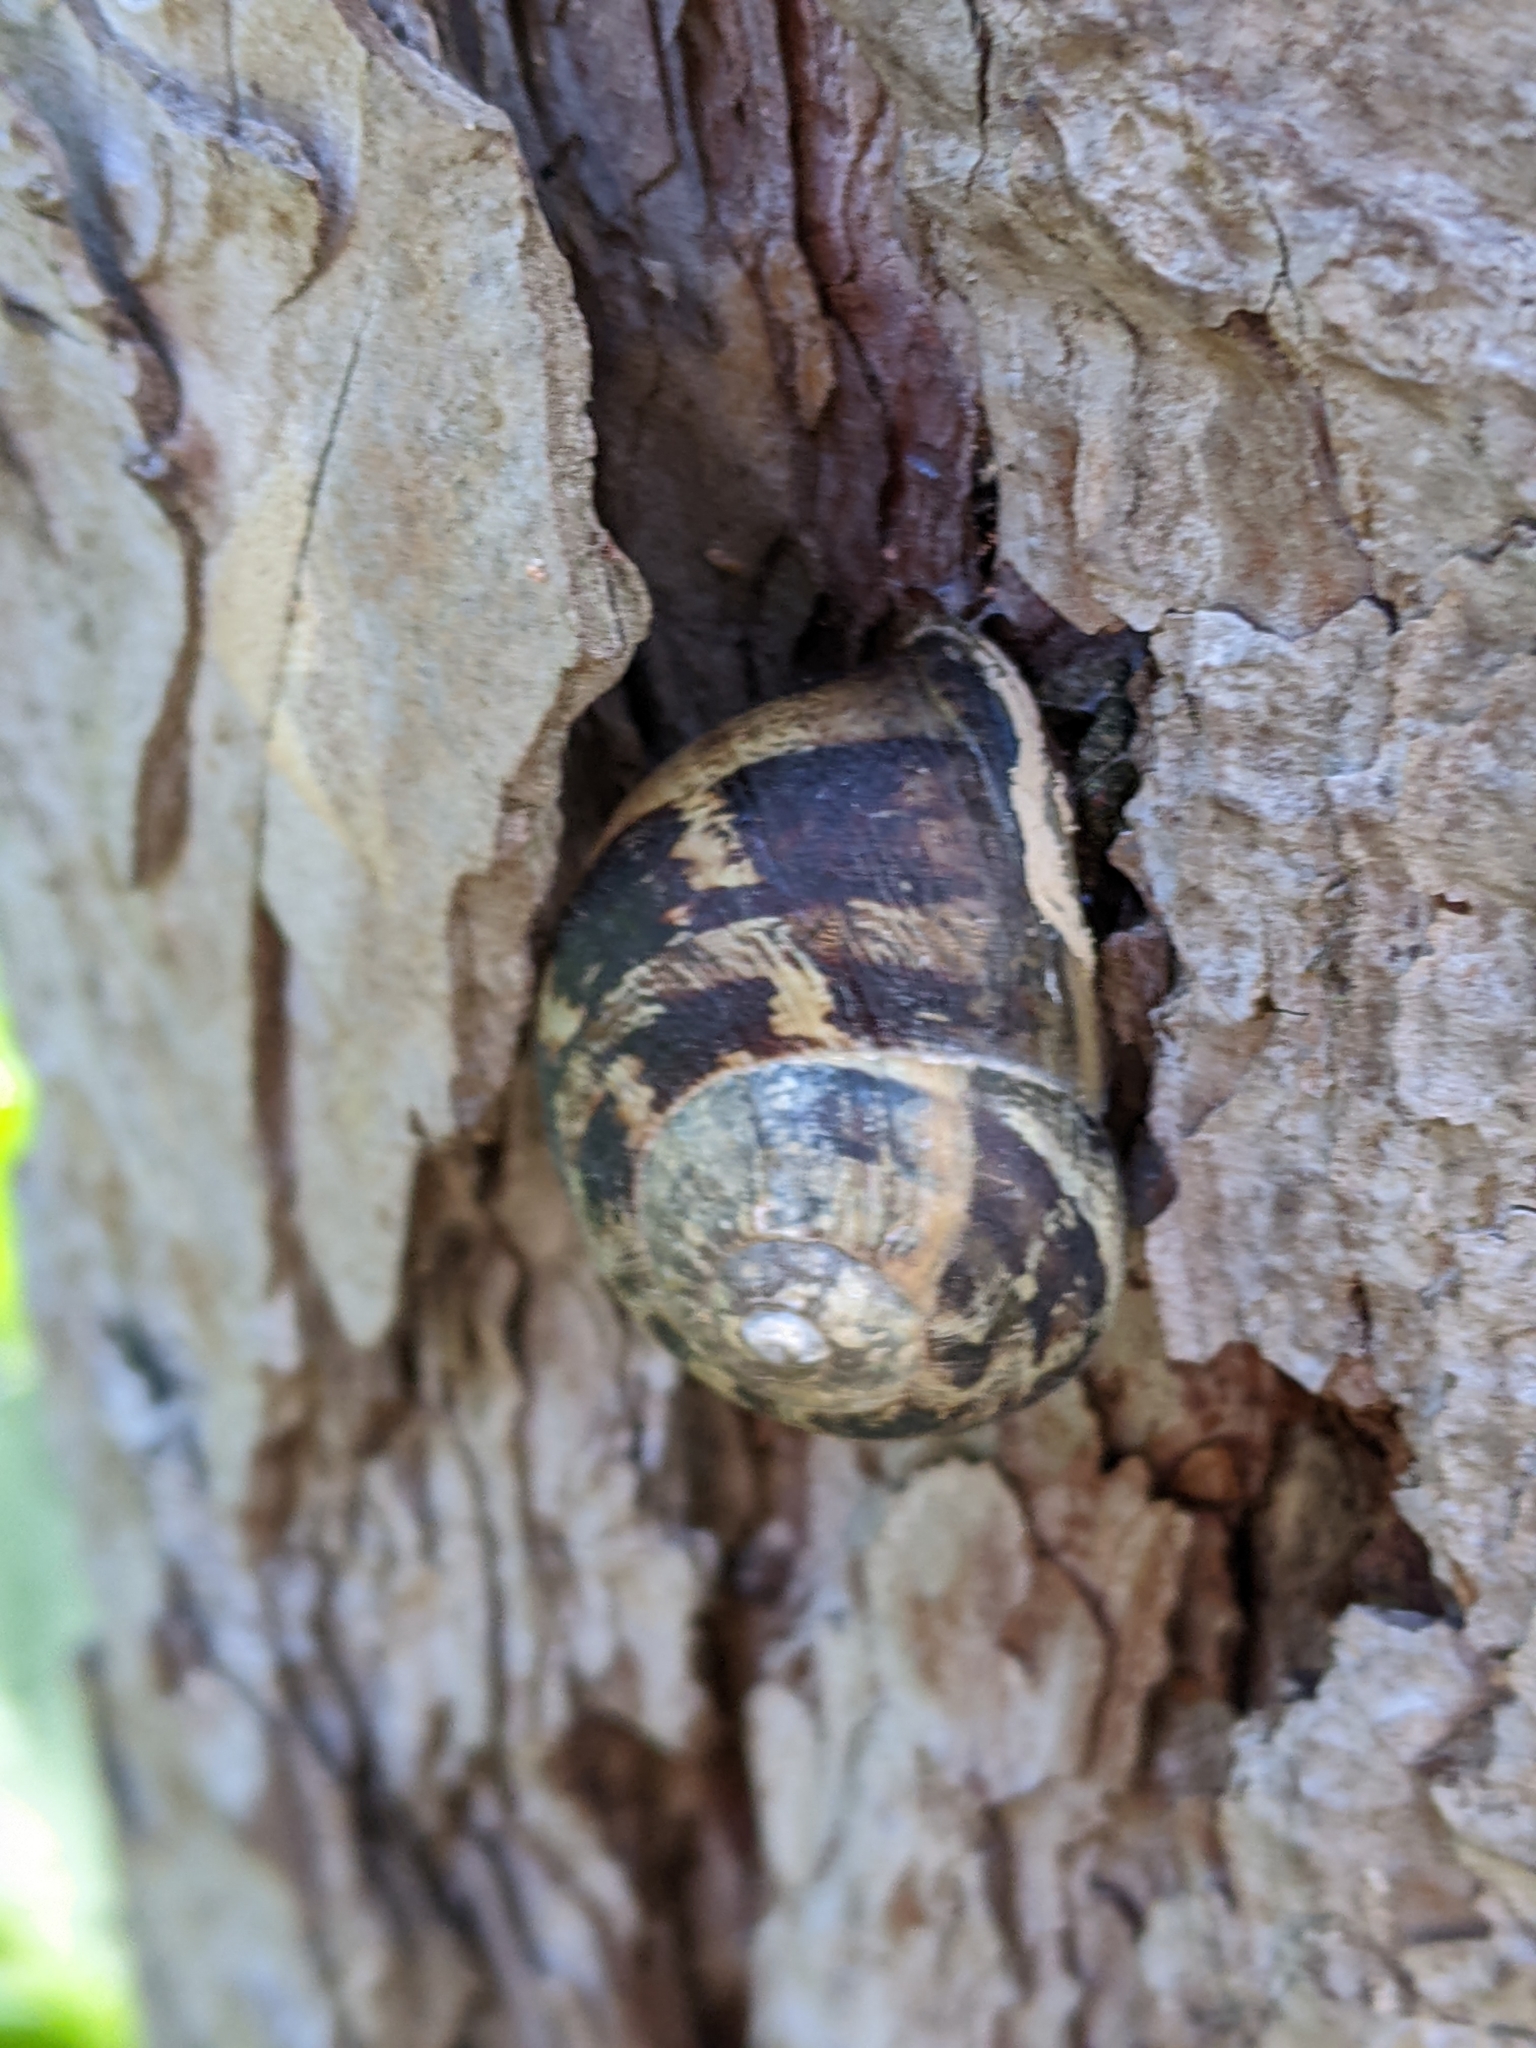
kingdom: Animalia
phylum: Mollusca
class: Gastropoda
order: Stylommatophora
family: Helicidae
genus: Cornu
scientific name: Cornu aspersum
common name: Brown garden snail
